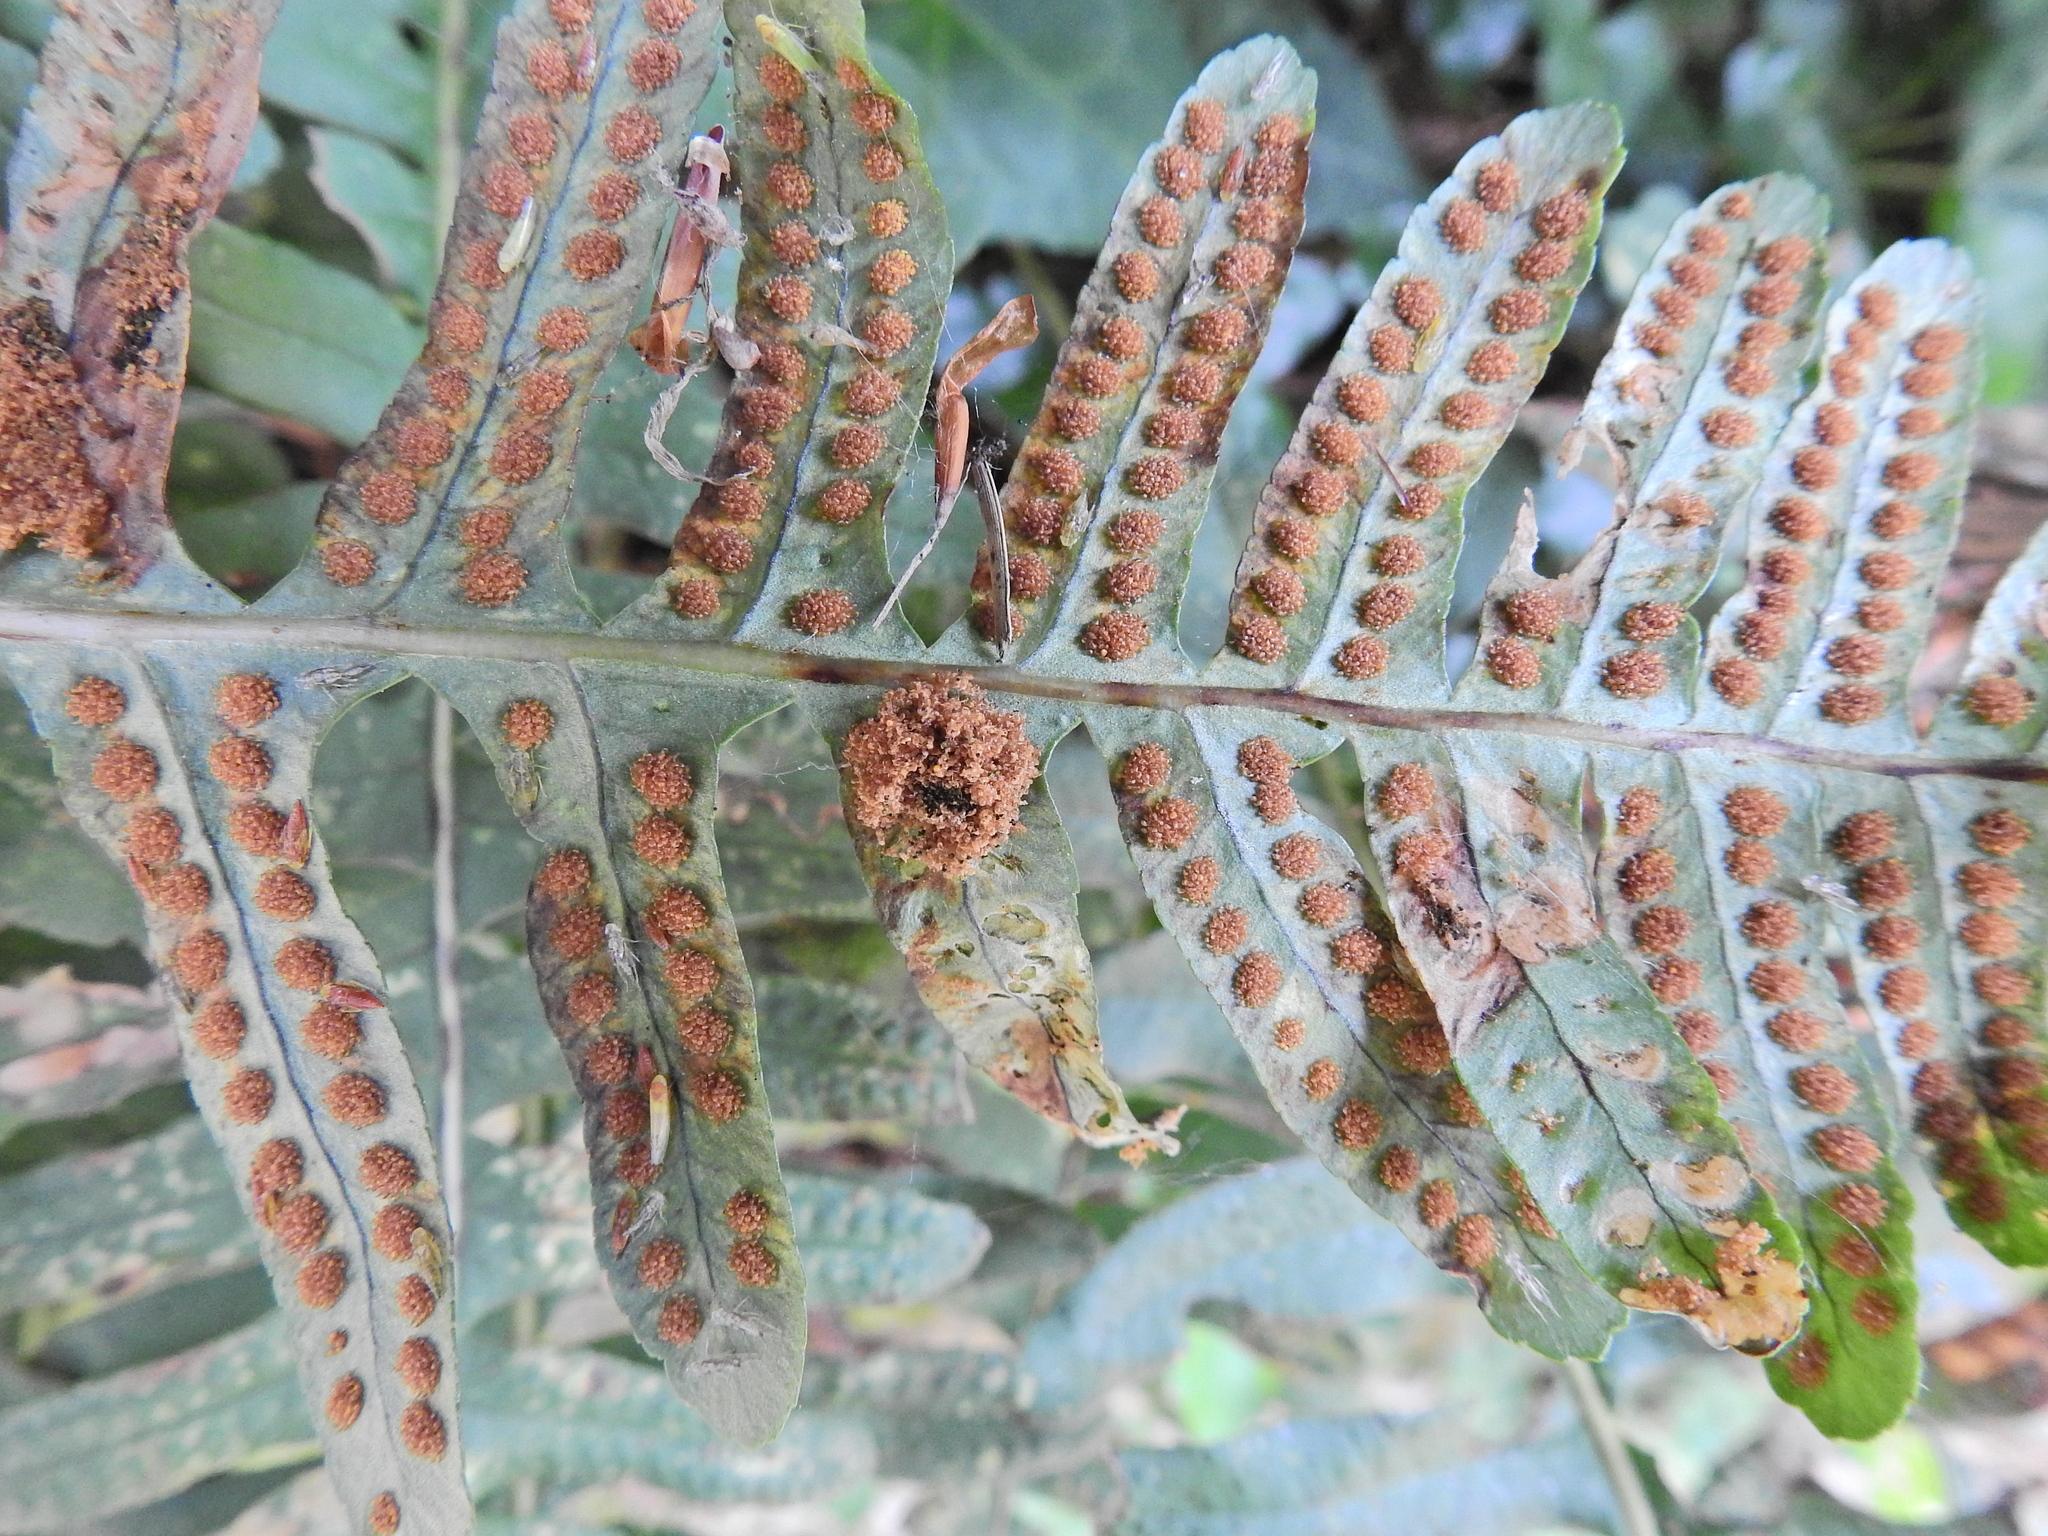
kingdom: Animalia
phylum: Arthropoda
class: Insecta
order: Lepidoptera
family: Tineidae
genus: Psychoides
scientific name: Psychoides filicivora
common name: Fern smut
